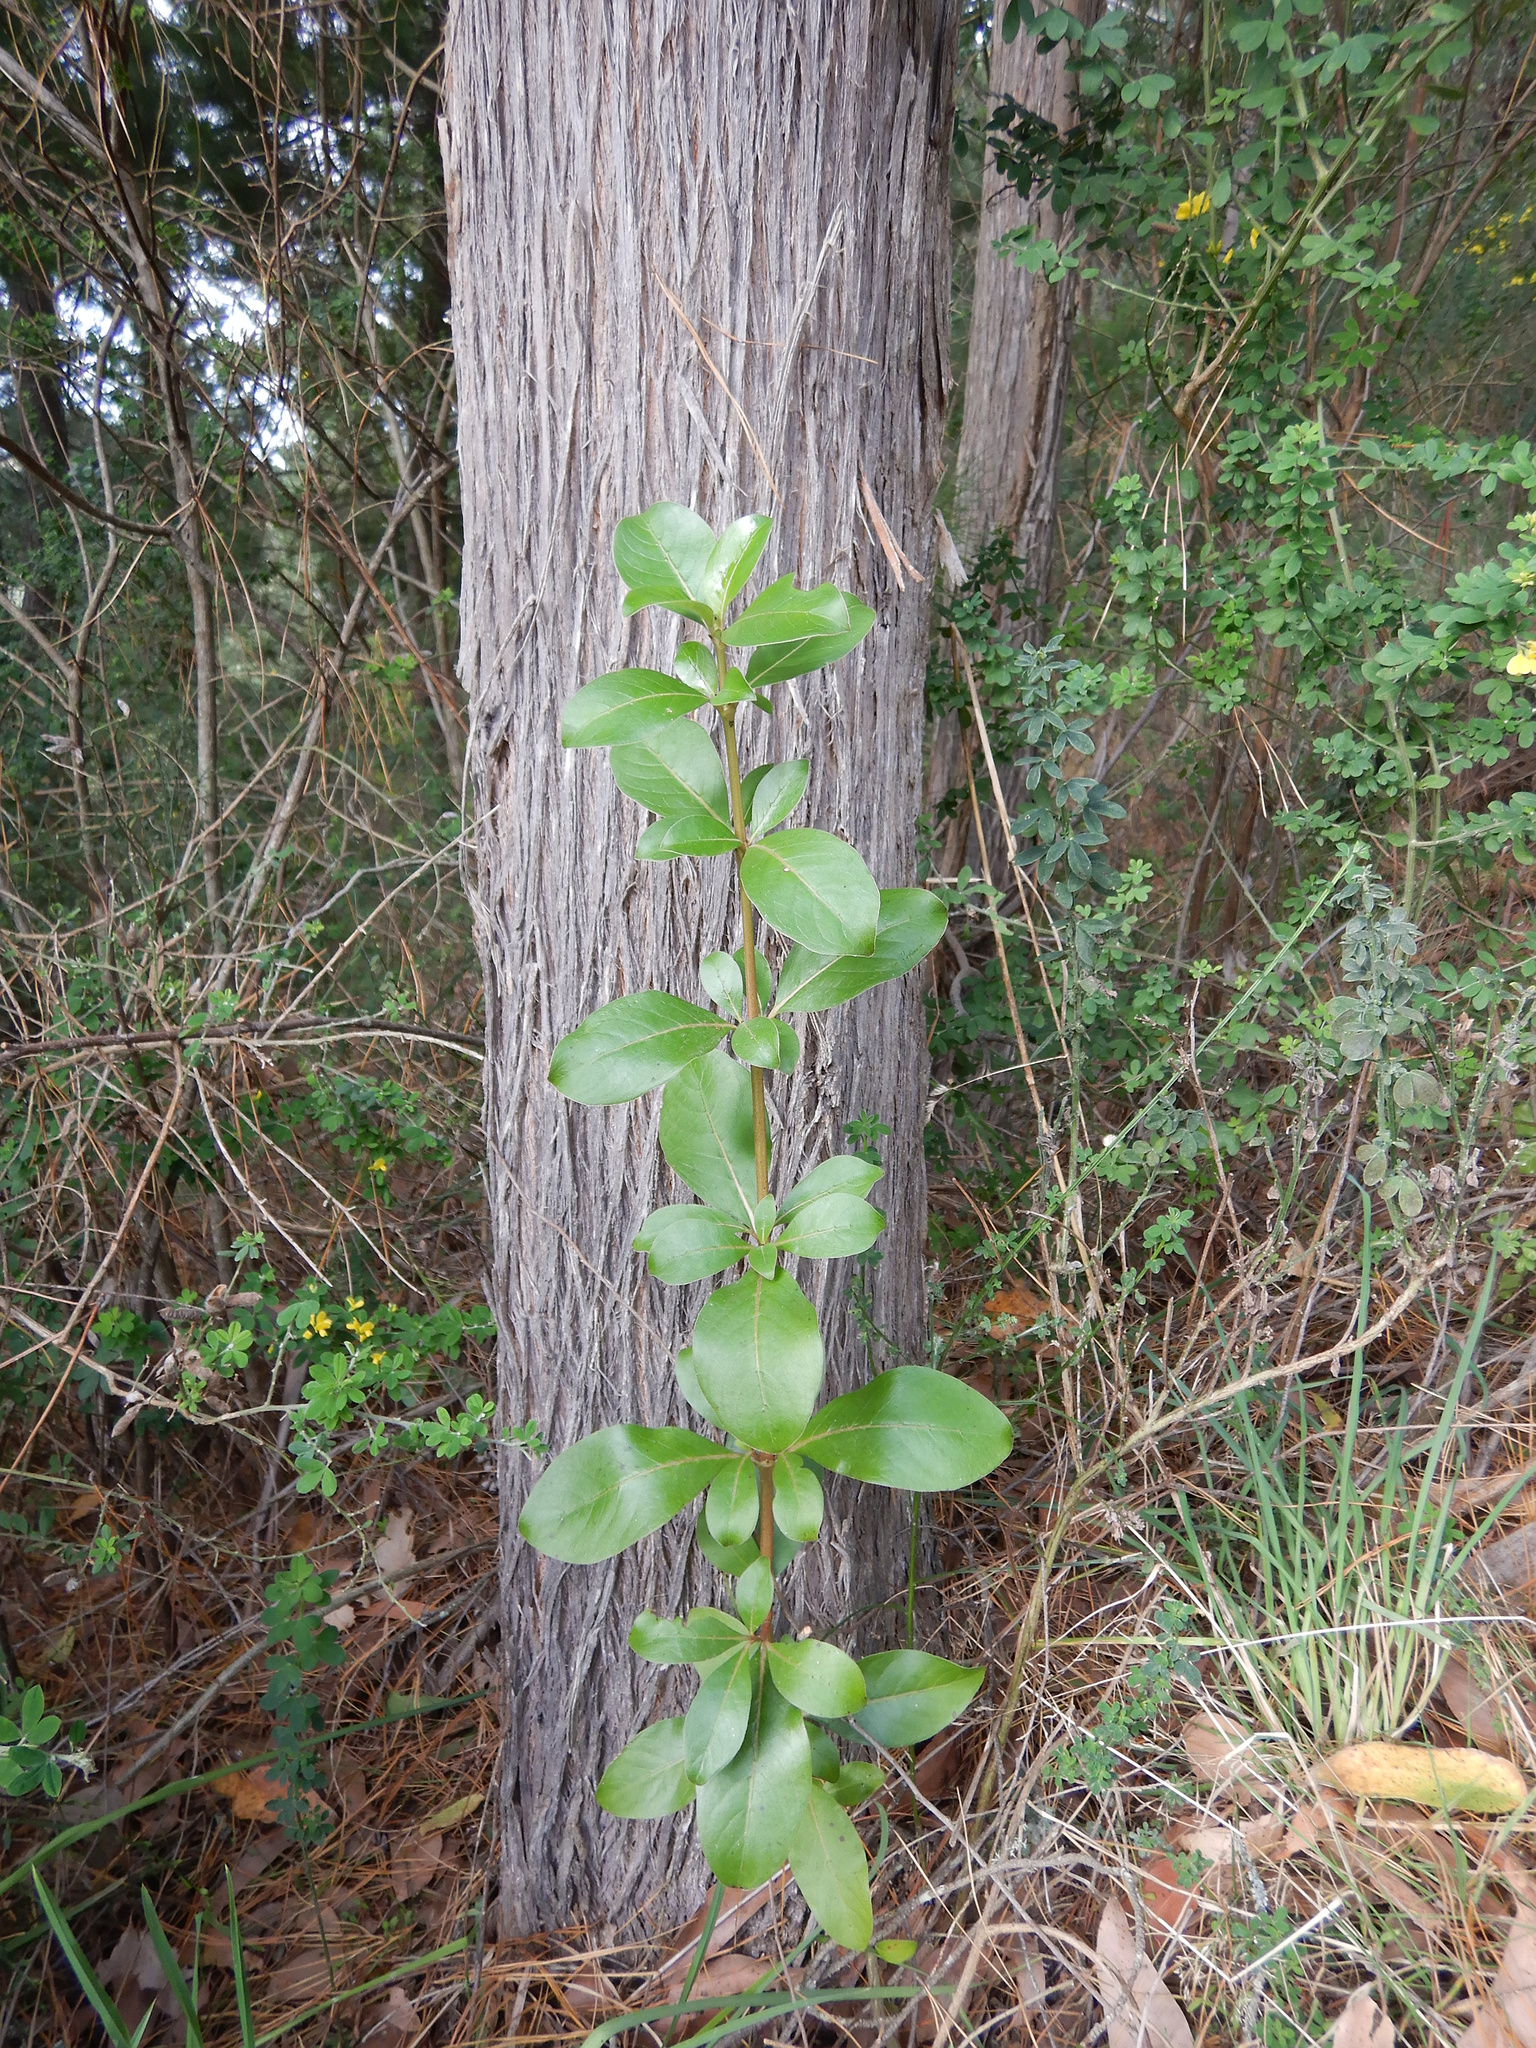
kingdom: Plantae
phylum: Tracheophyta
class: Magnoliopsida
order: Gentianales
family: Rubiaceae
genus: Coprosma
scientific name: Coprosma robusta
